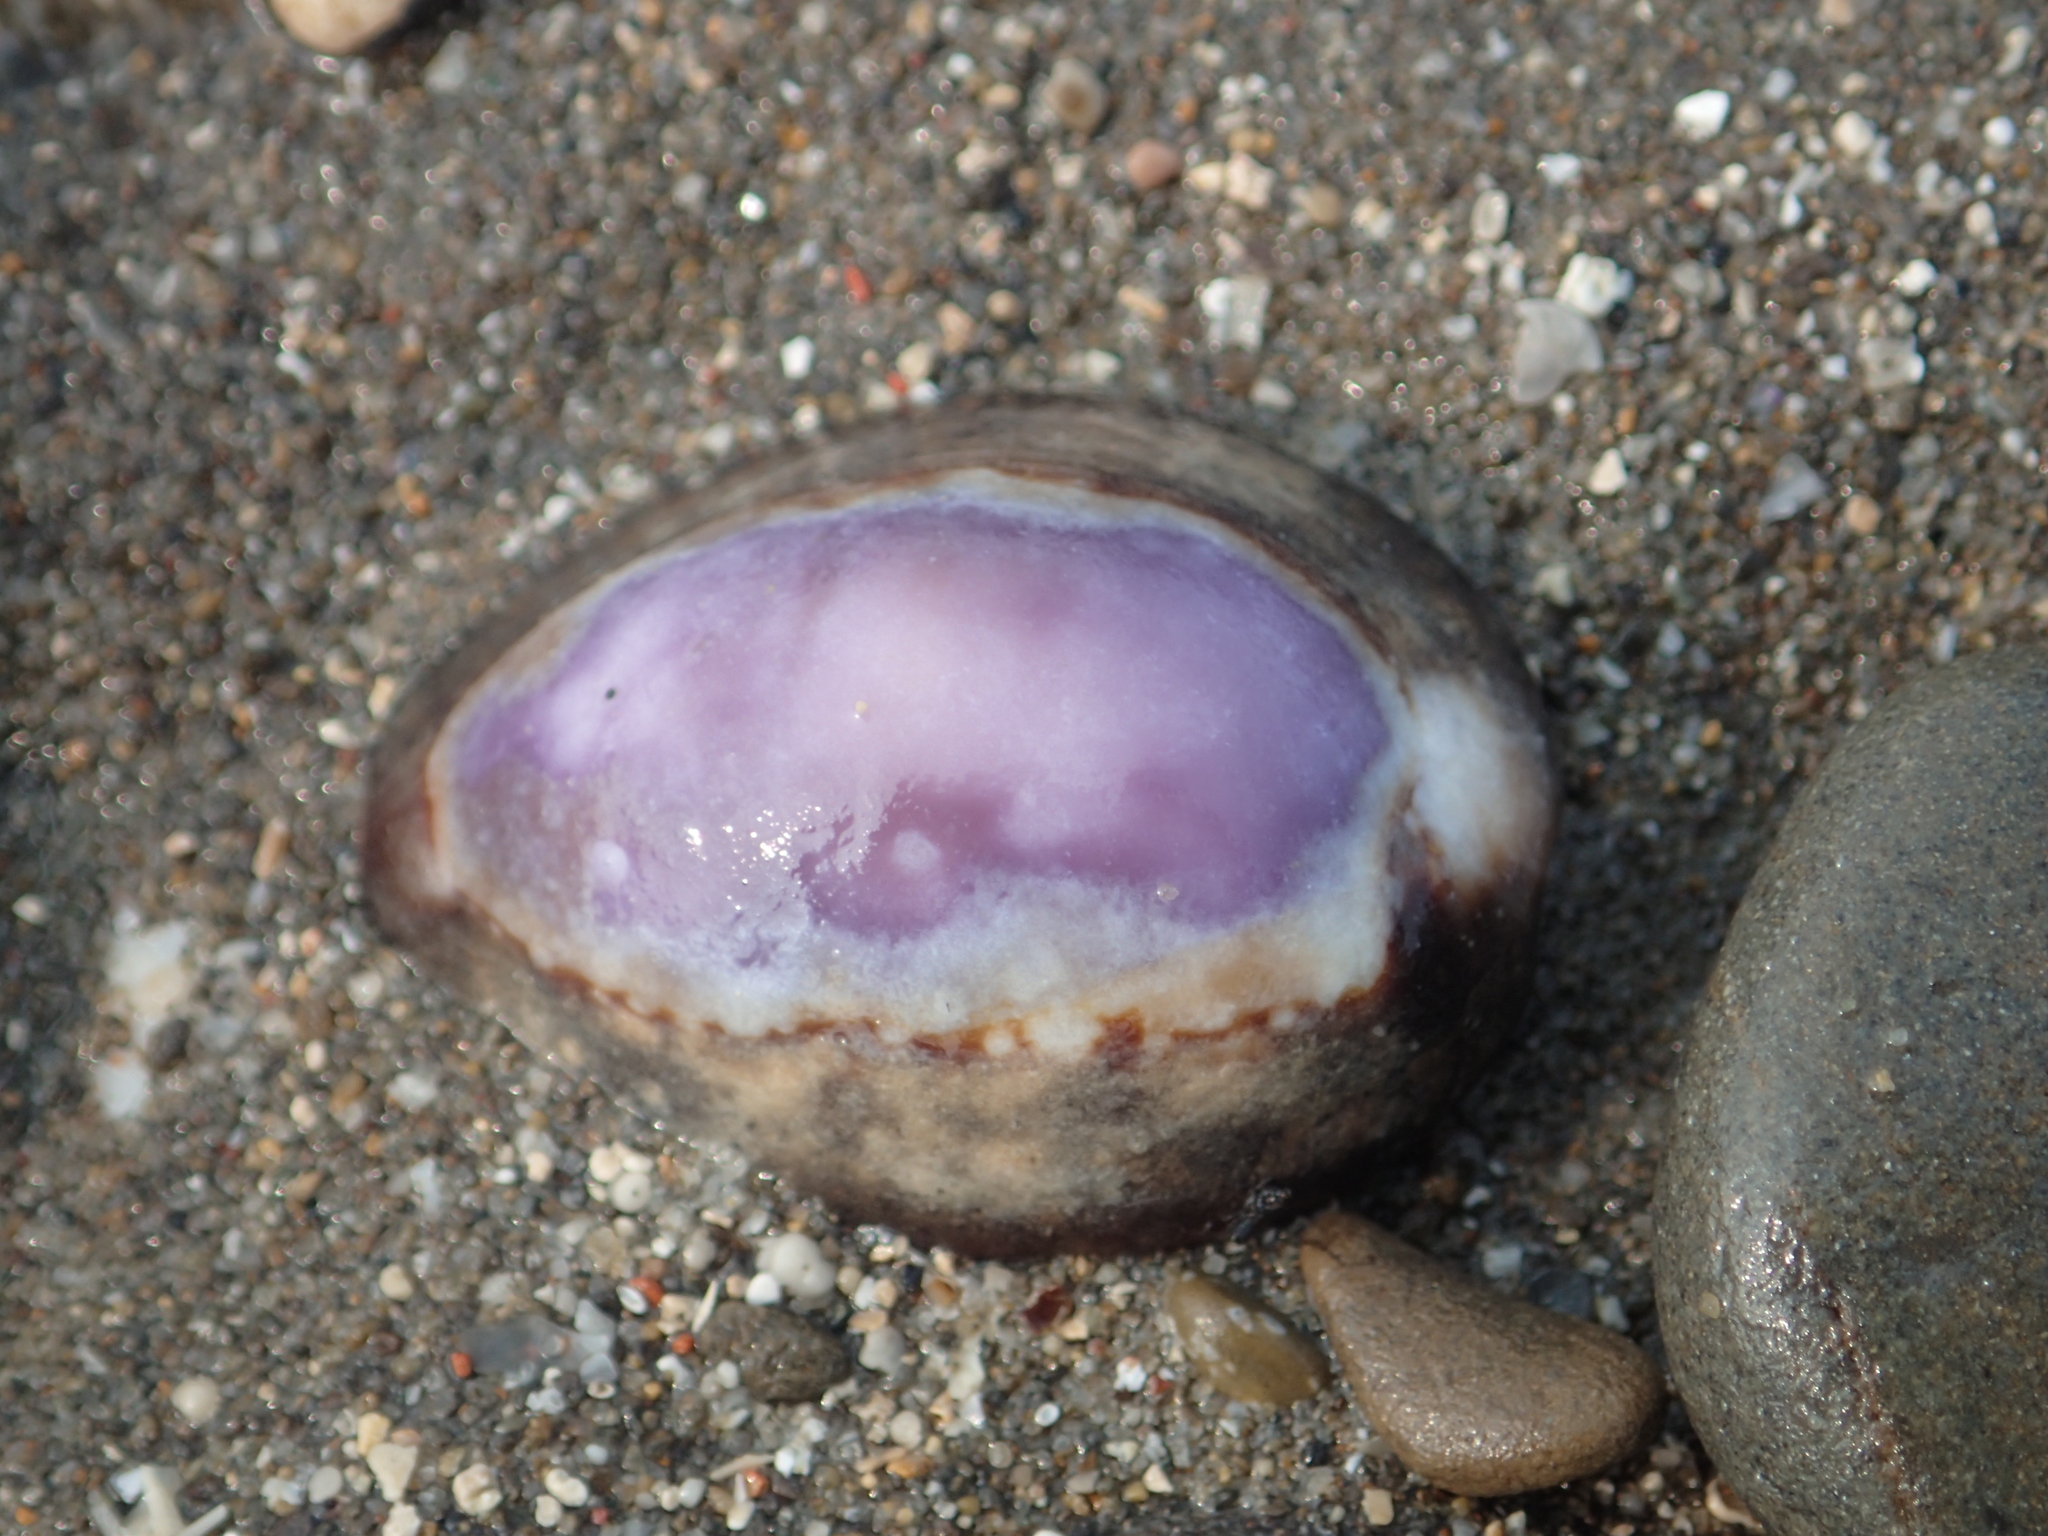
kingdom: Animalia
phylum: Mollusca
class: Gastropoda
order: Littorinimorpha
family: Cypraeidae
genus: Monetaria
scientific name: Monetaria caputserpentis
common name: Serpent's head cowrie
